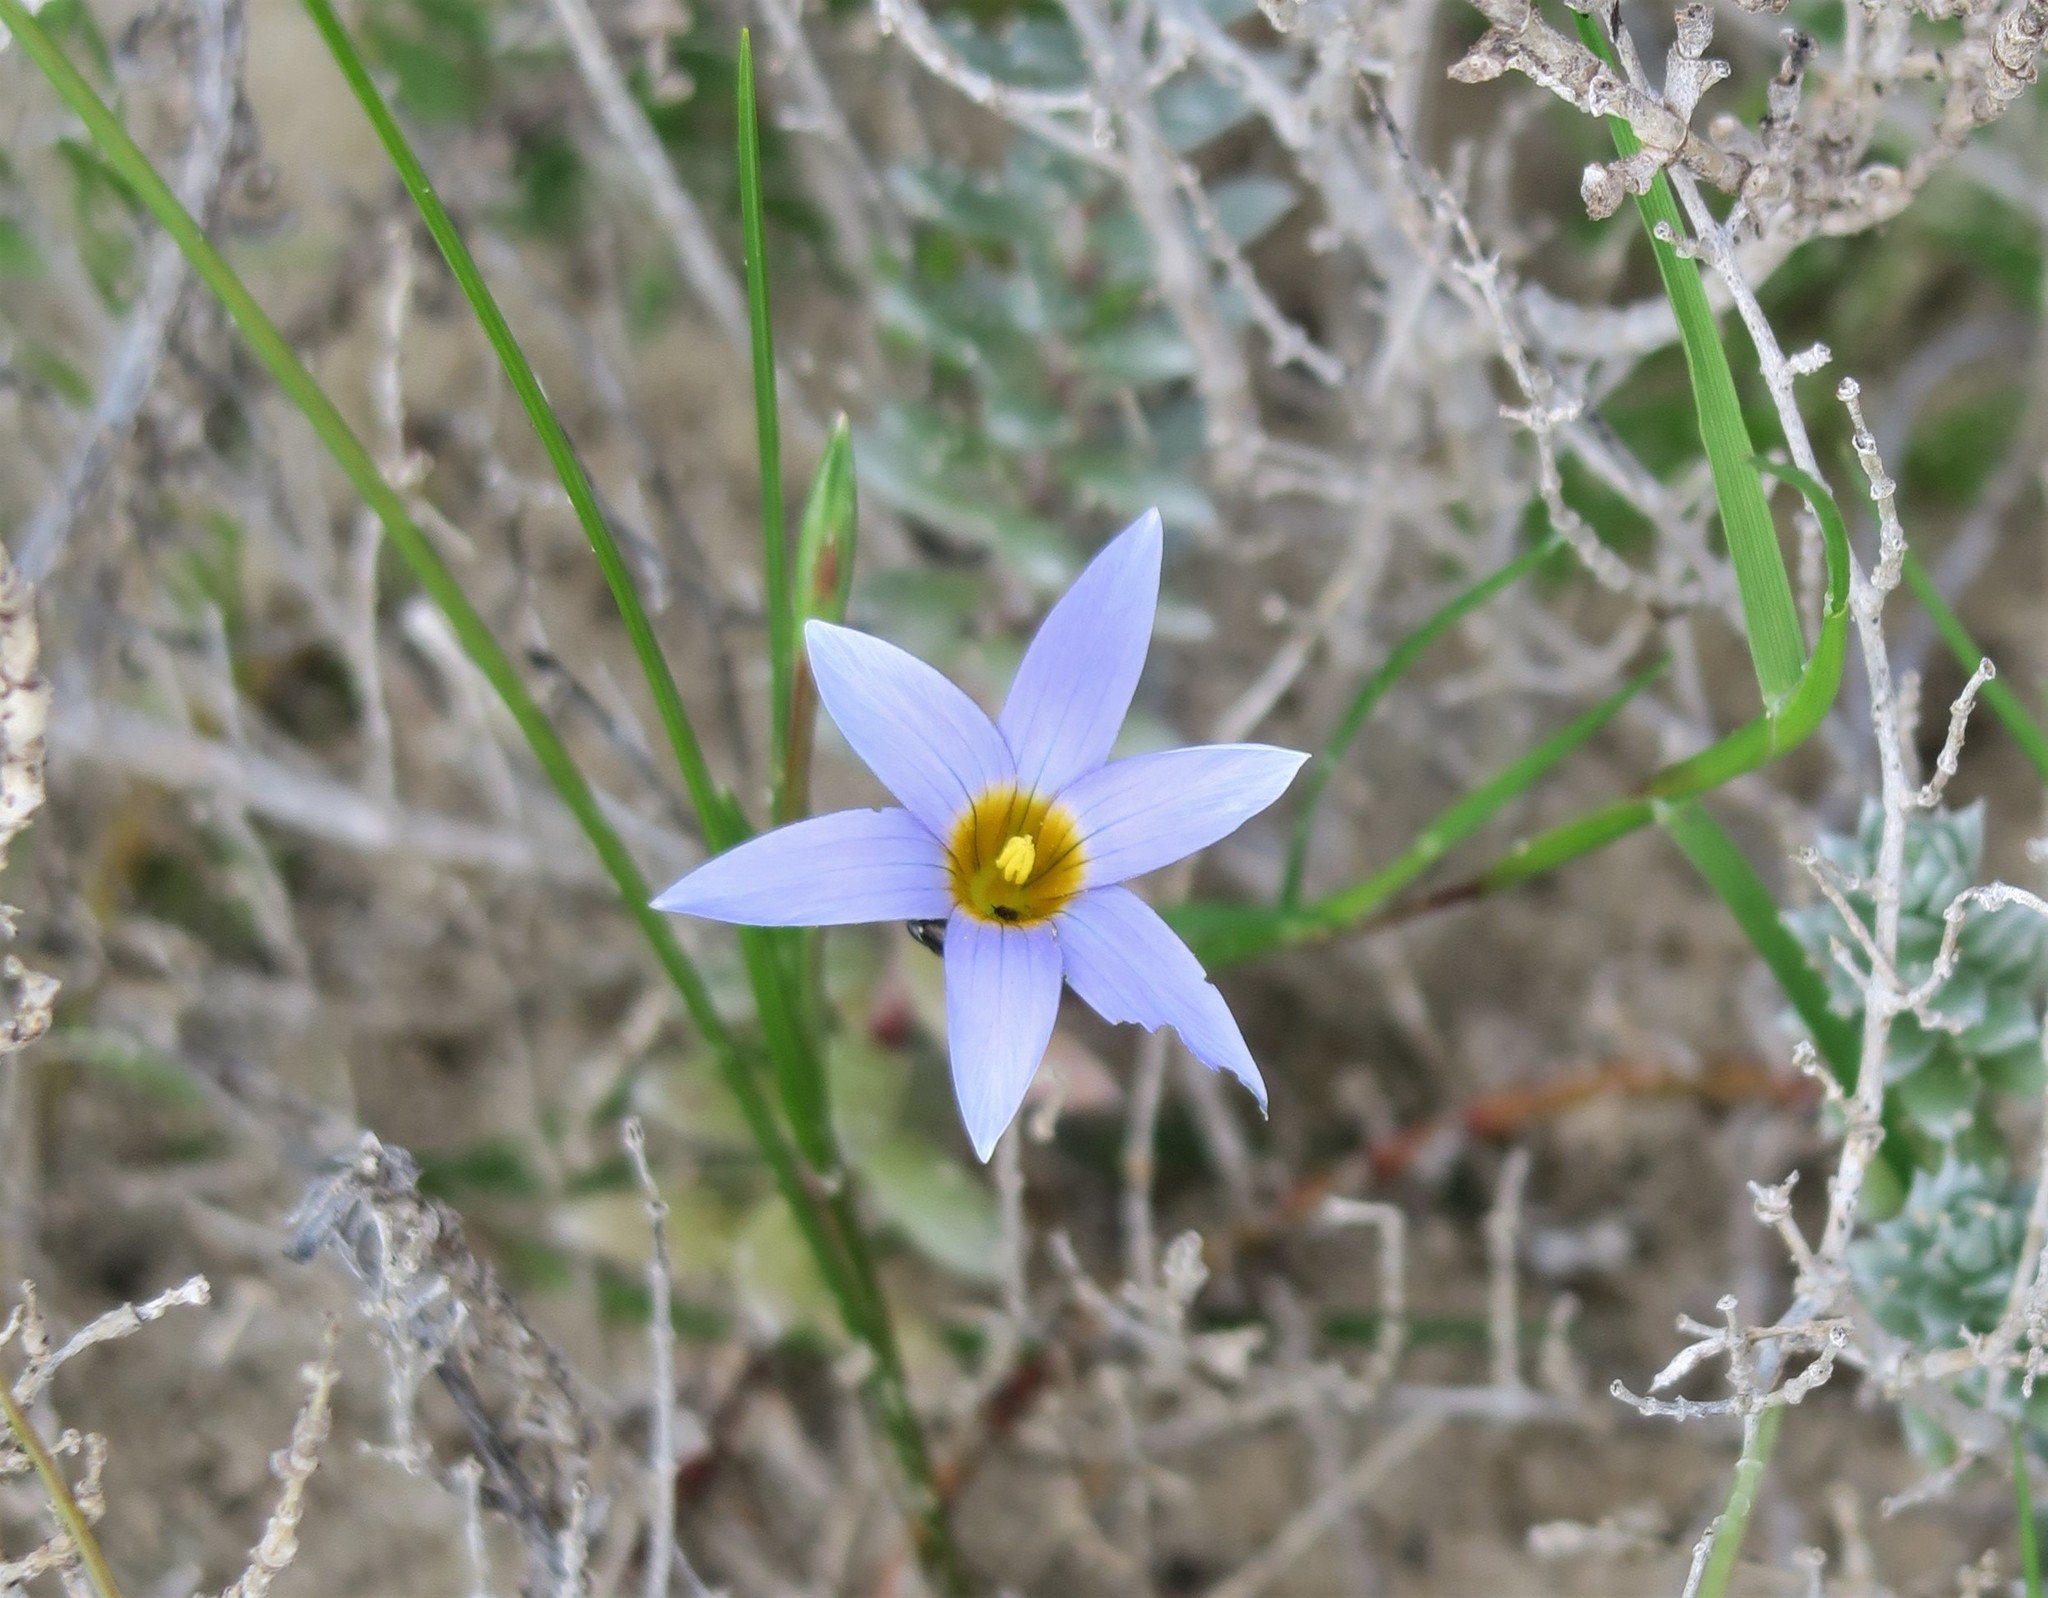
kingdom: Plantae
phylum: Tracheophyta
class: Liliopsida
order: Asparagales
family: Iridaceae
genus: Romulea
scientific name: Romulea tabularis
